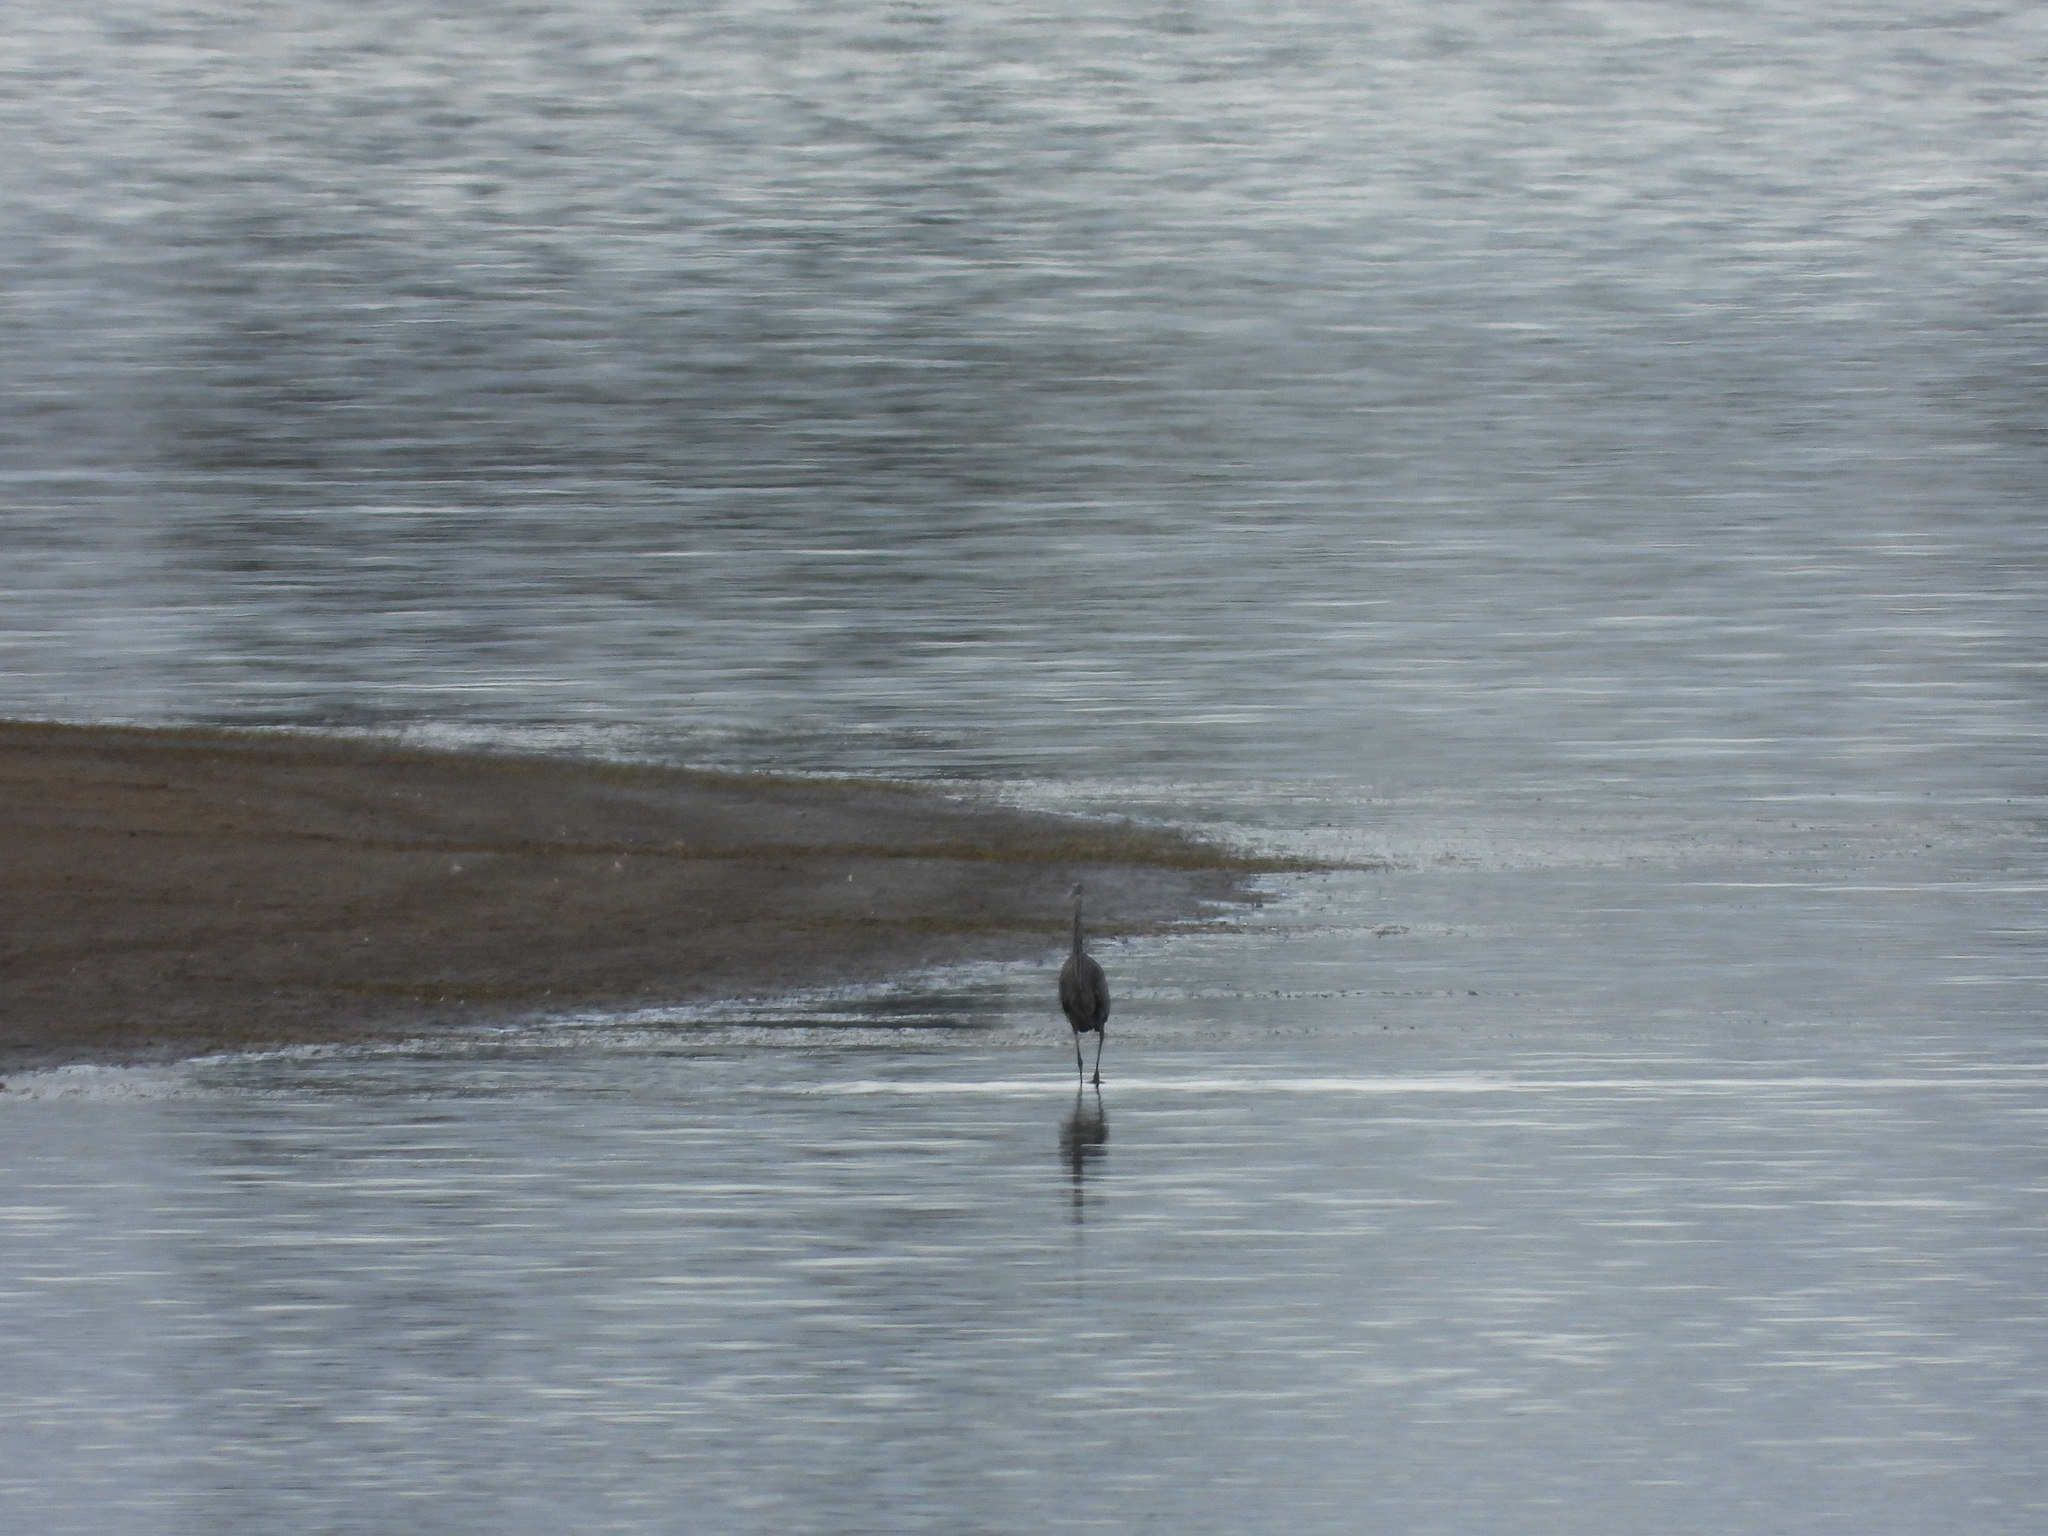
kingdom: Animalia
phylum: Chordata
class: Aves
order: Pelecaniformes
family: Ardeidae
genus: Ardea
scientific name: Ardea herodias
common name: Great blue heron
